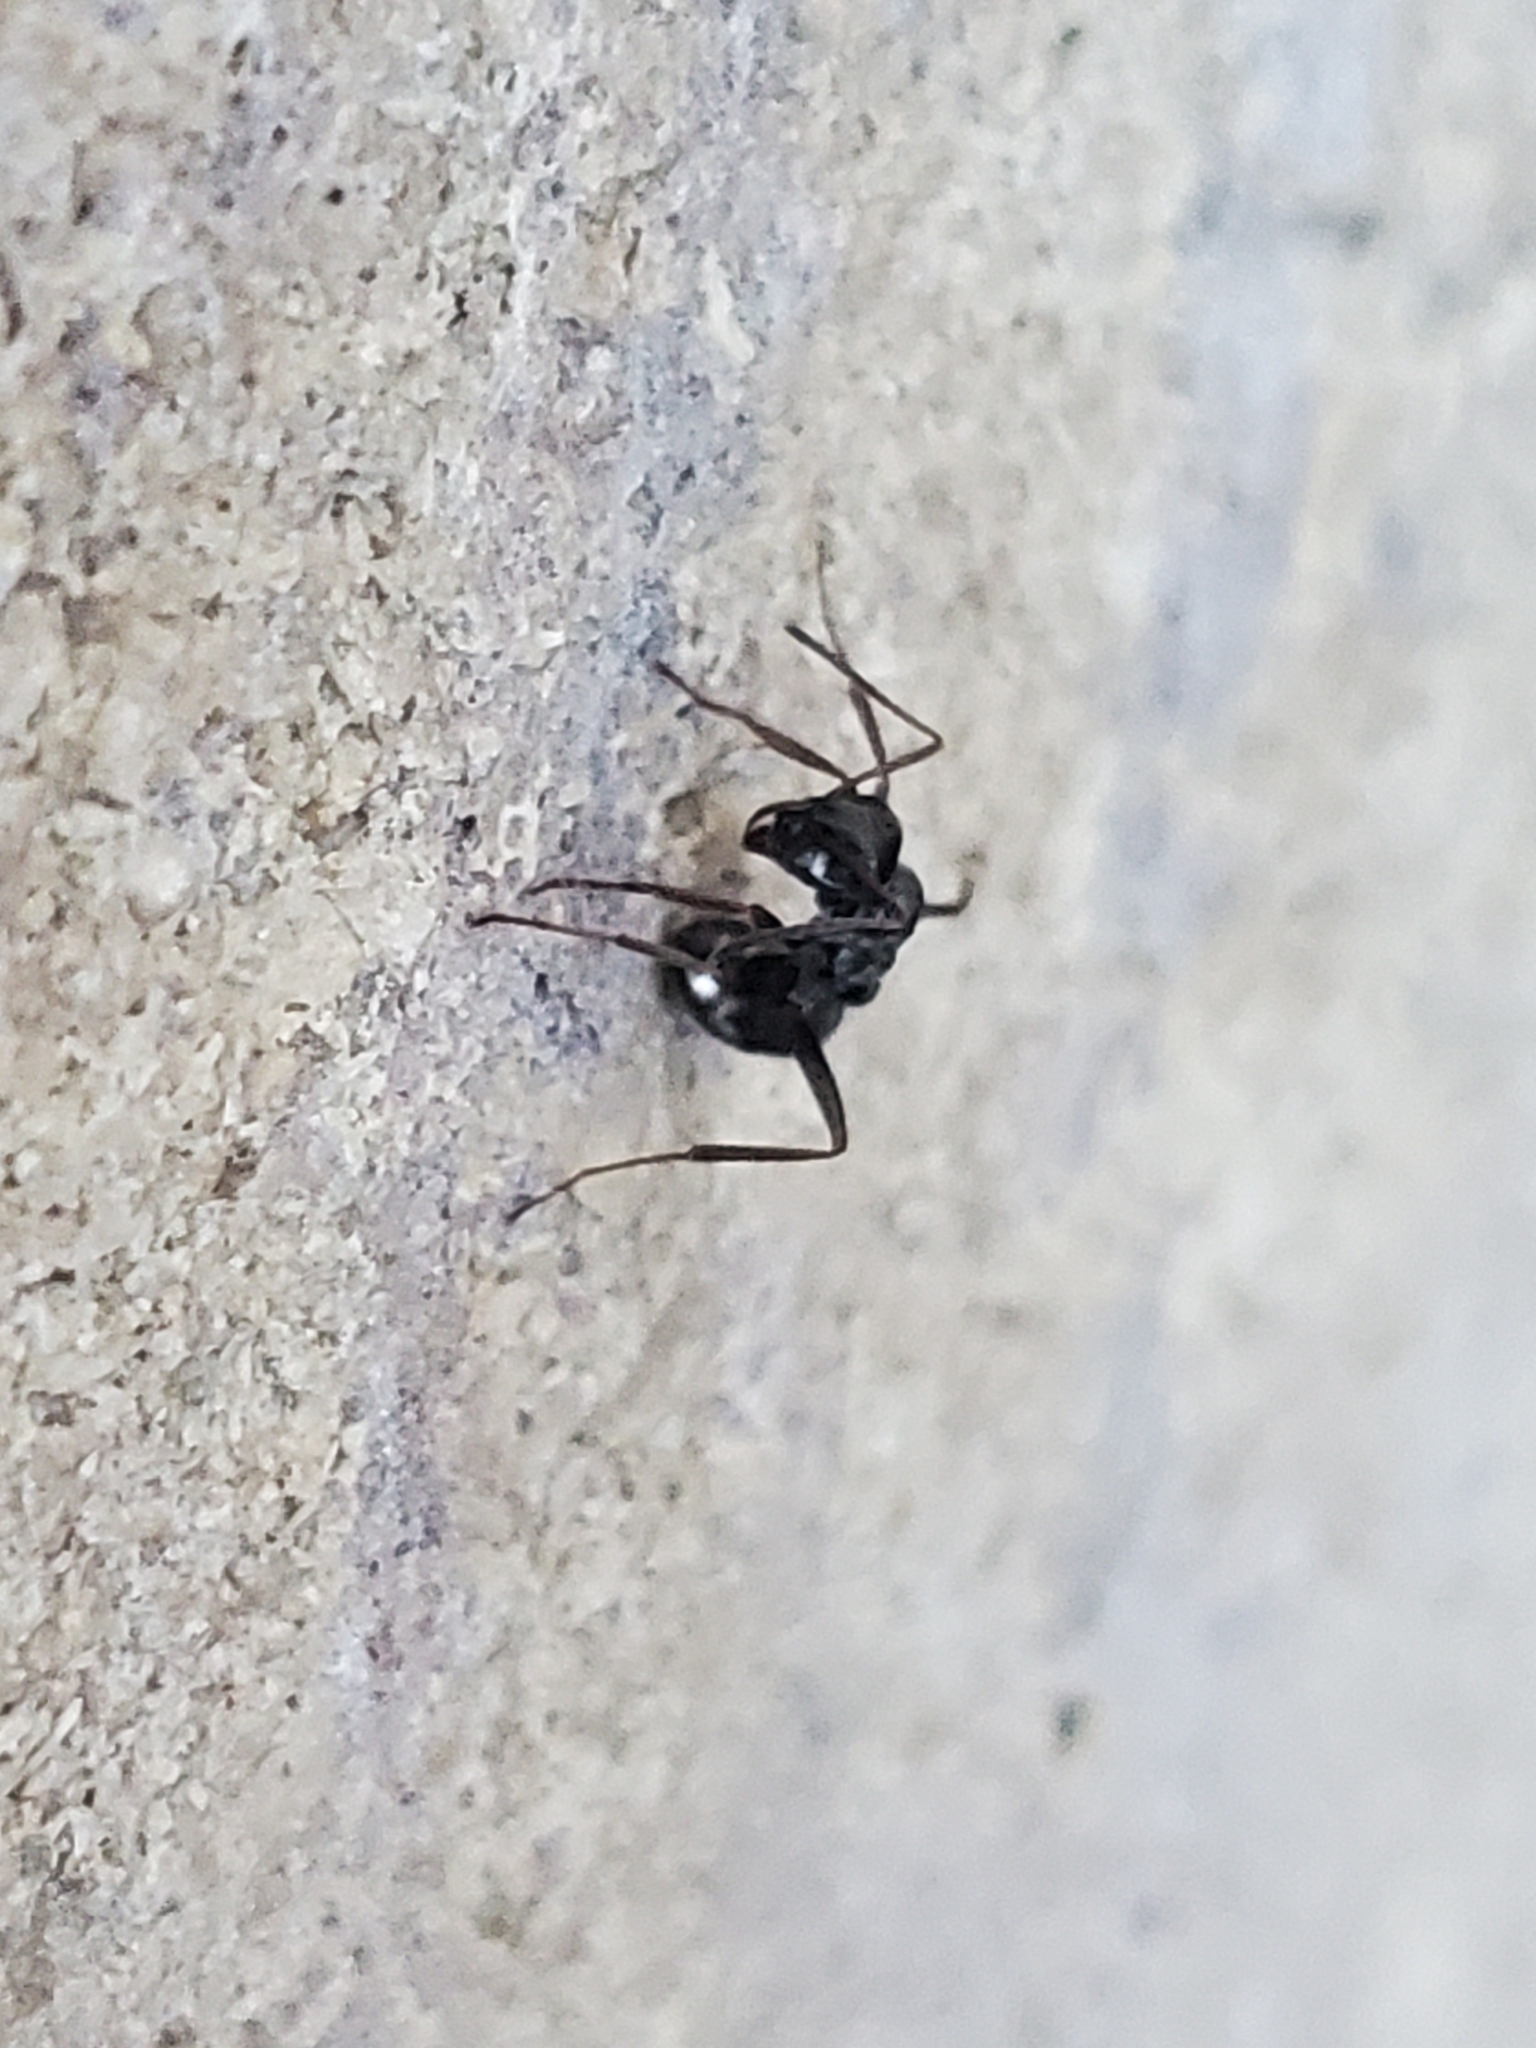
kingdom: Animalia
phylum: Arthropoda
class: Insecta
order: Hymenoptera
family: Formicidae
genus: Formica
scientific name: Formica
